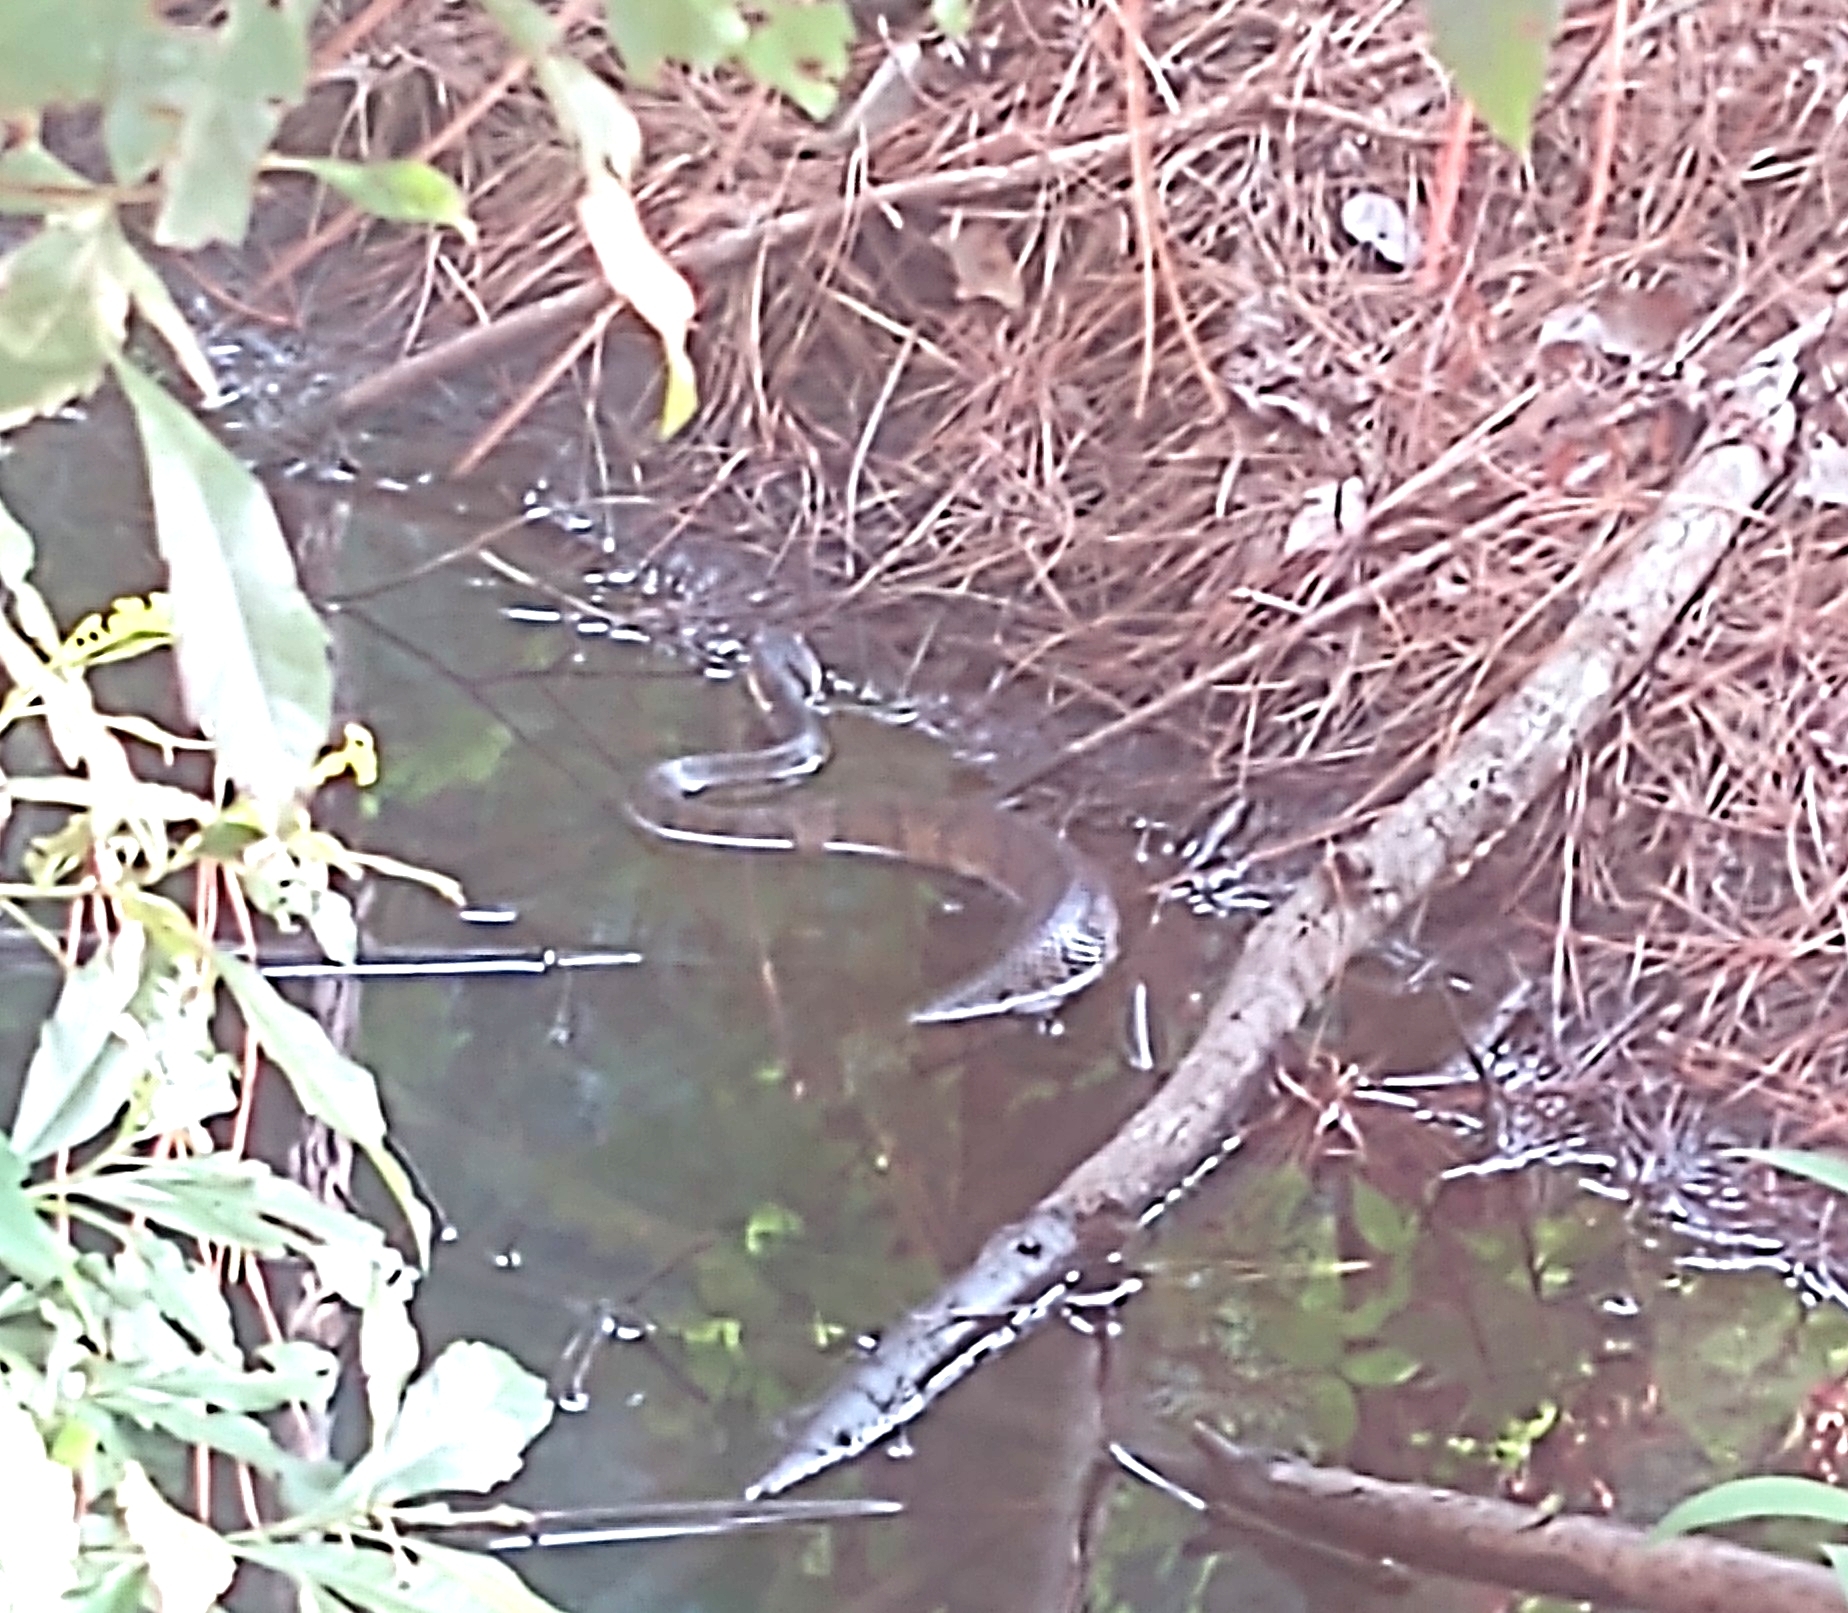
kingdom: Animalia
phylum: Chordata
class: Squamata
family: Viperidae
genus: Agkistrodon
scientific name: Agkistrodon conanti
